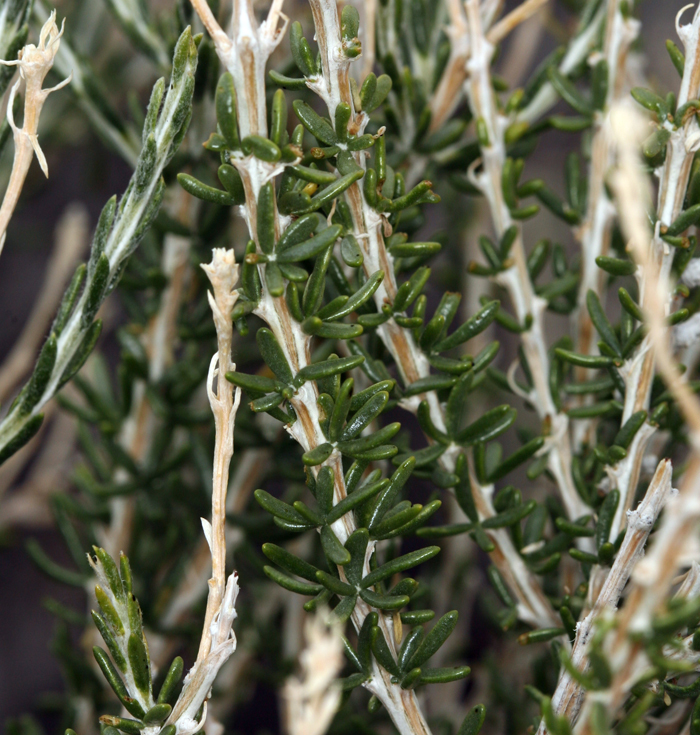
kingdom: Plantae
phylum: Tracheophyta
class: Magnoliopsida
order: Asterales
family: Asteraceae
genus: Tetradymia
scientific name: Tetradymia glabrata
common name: Smooth tetradymia
